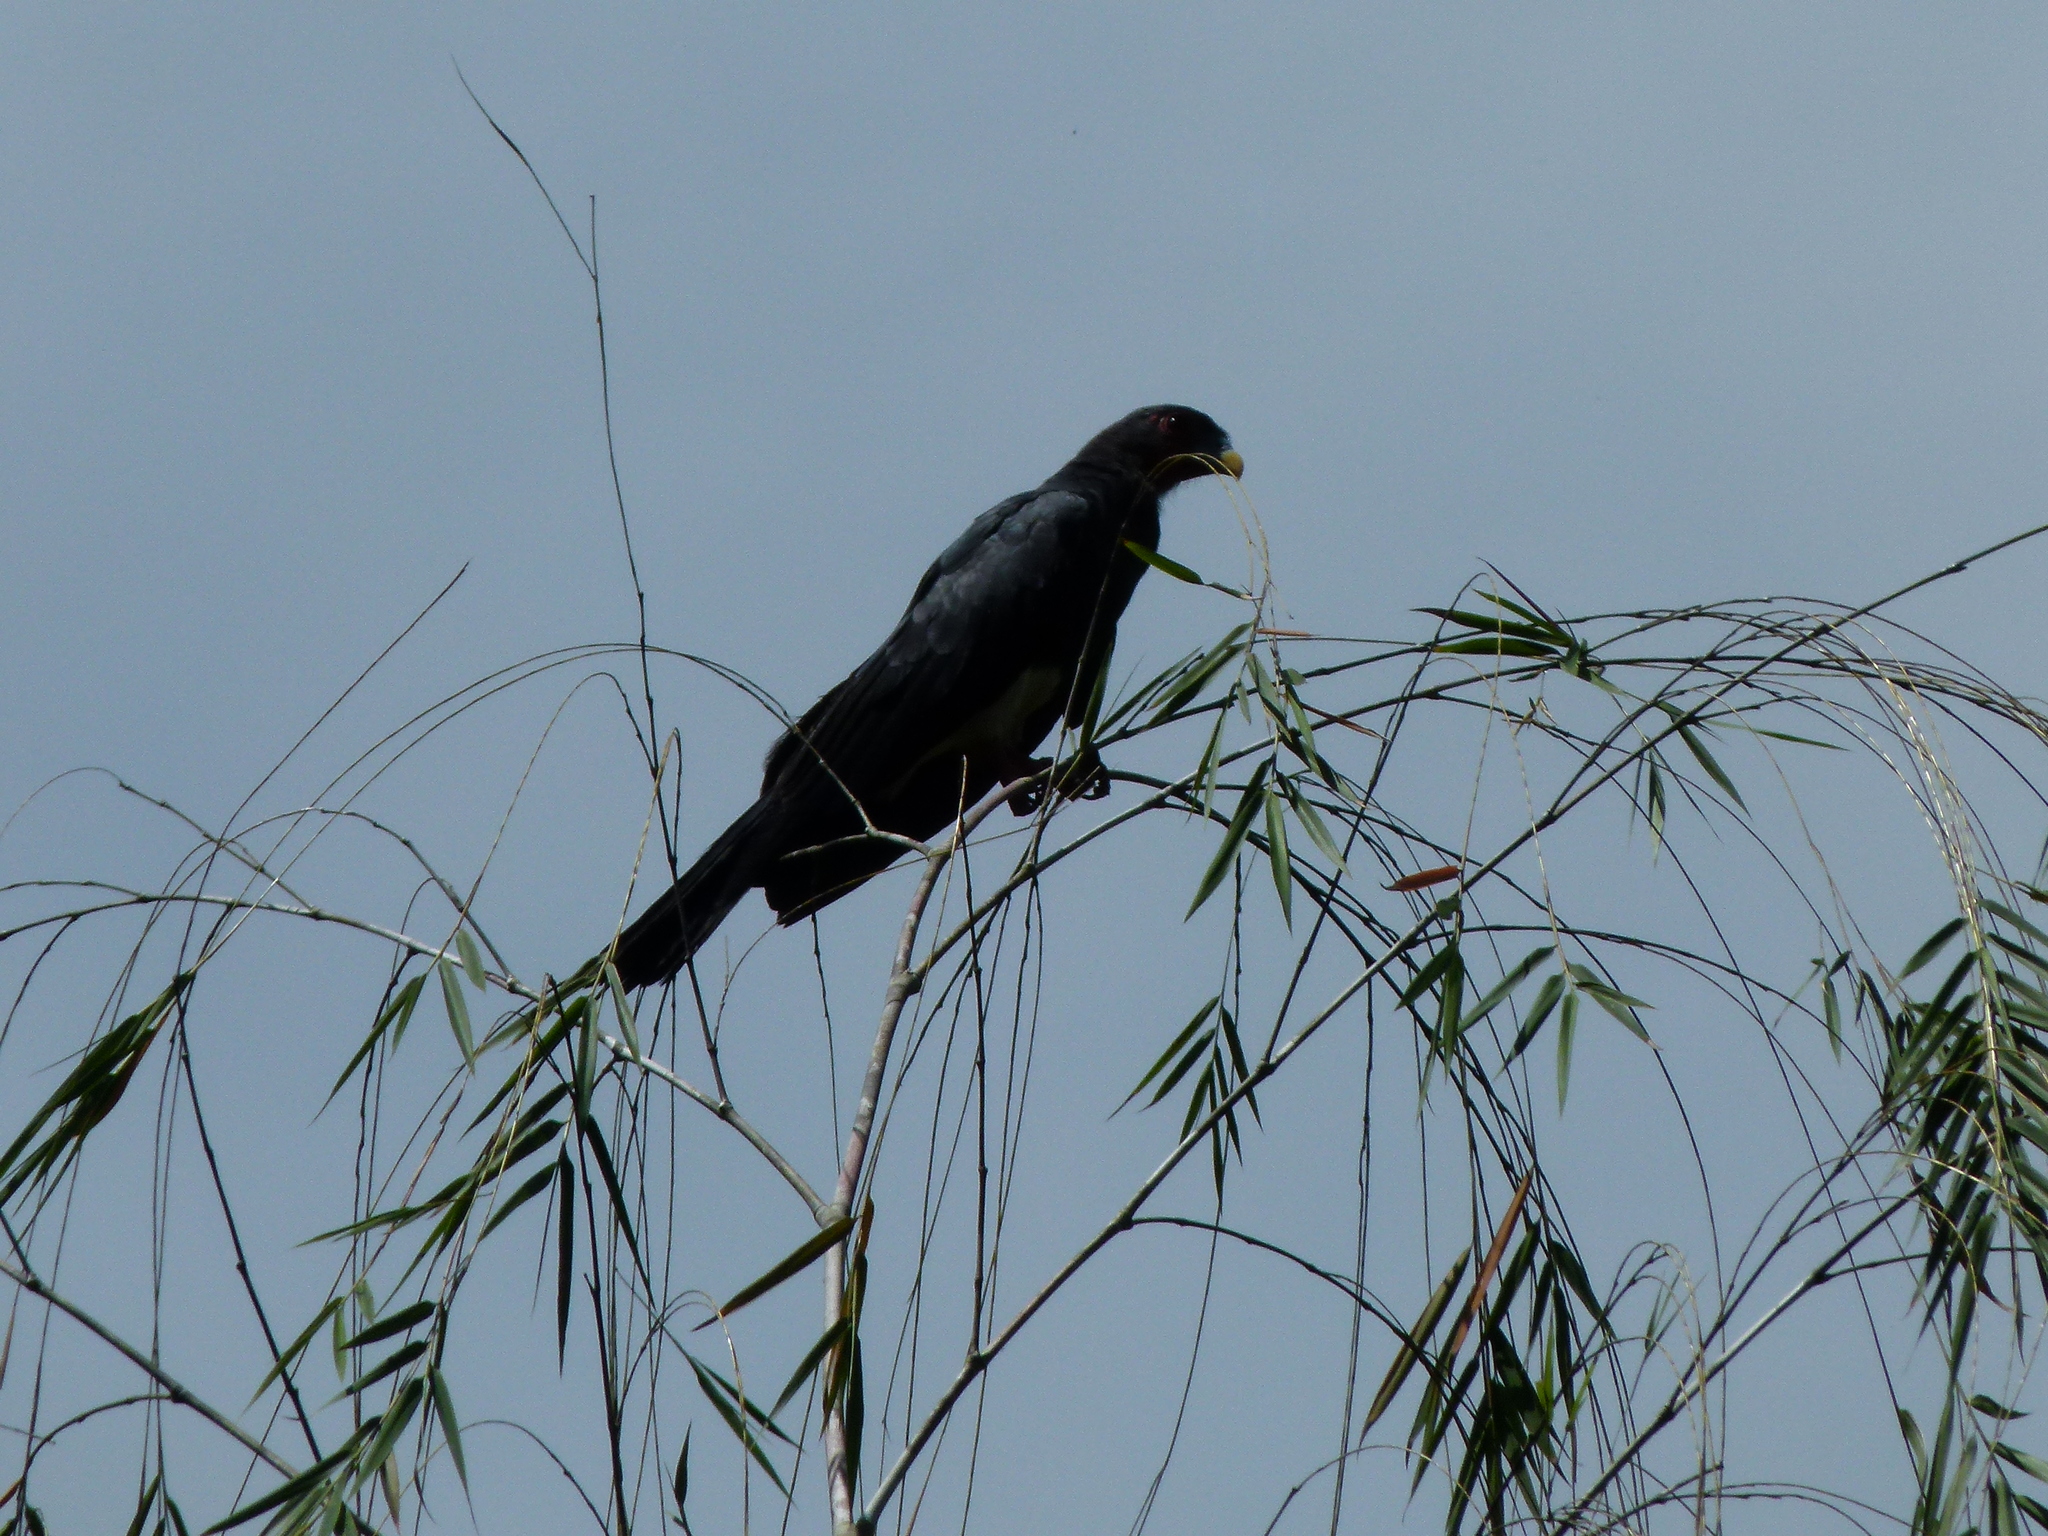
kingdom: Animalia
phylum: Chordata
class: Aves
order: Falconiformes
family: Falconidae
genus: Ibycter
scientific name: Ibycter americanus
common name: Red-throated caracara
